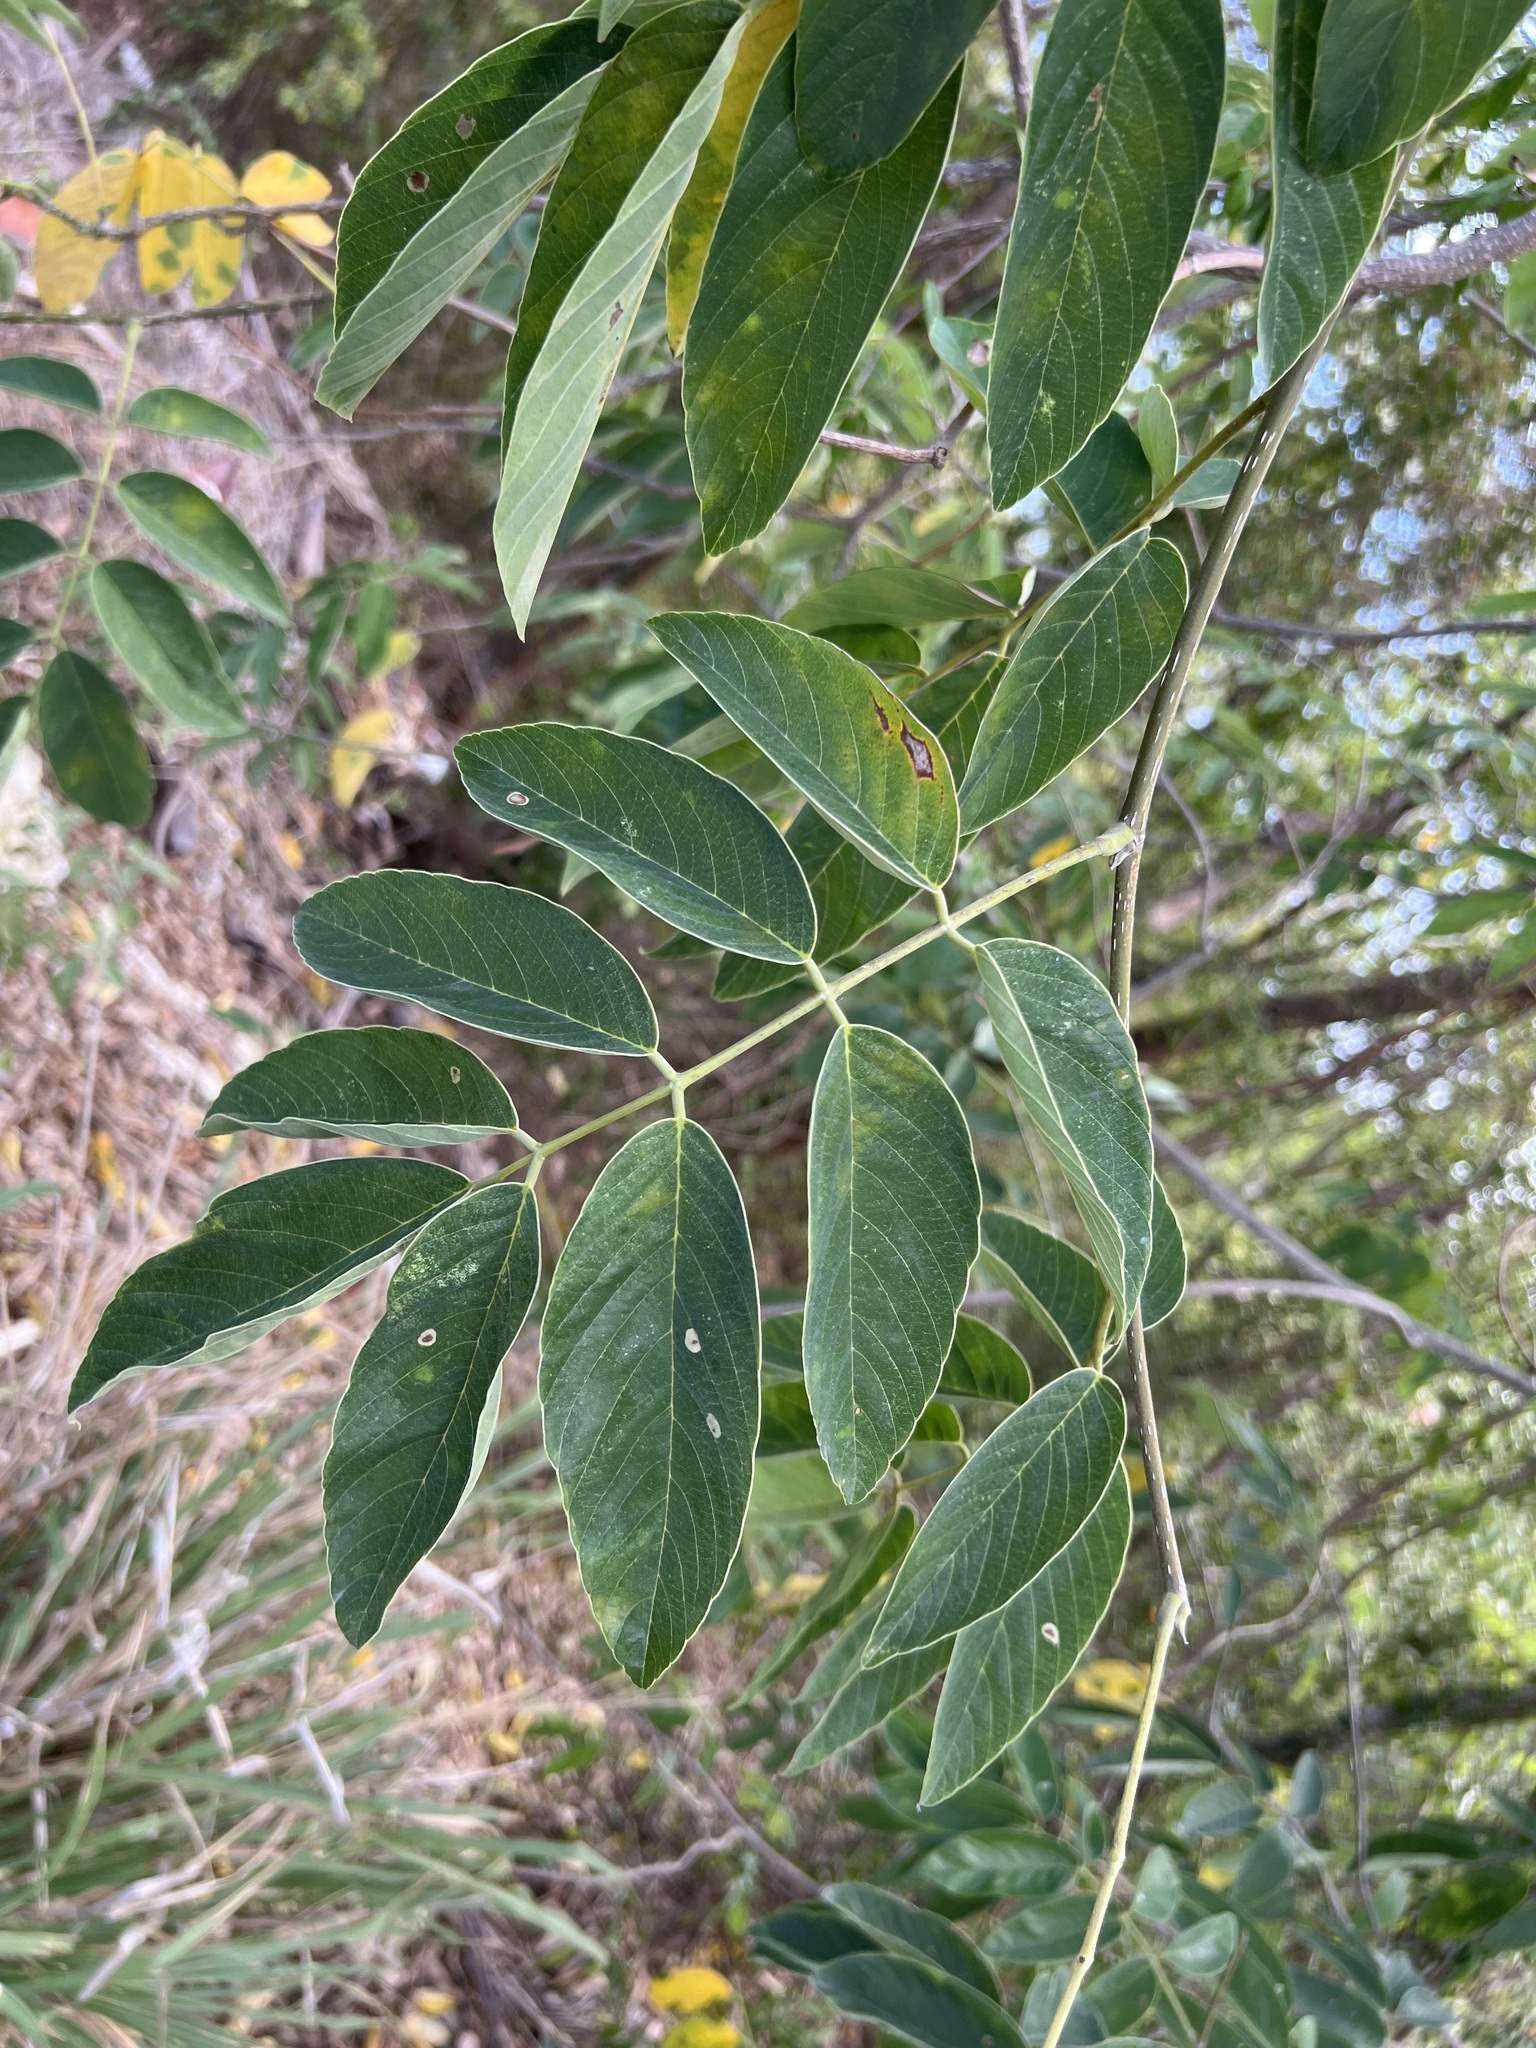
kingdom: Plantae
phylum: Tracheophyta
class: Magnoliopsida
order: Fabales
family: Fabaceae
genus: Piscidia
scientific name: Piscidia carthagenensis
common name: Stinkwood
